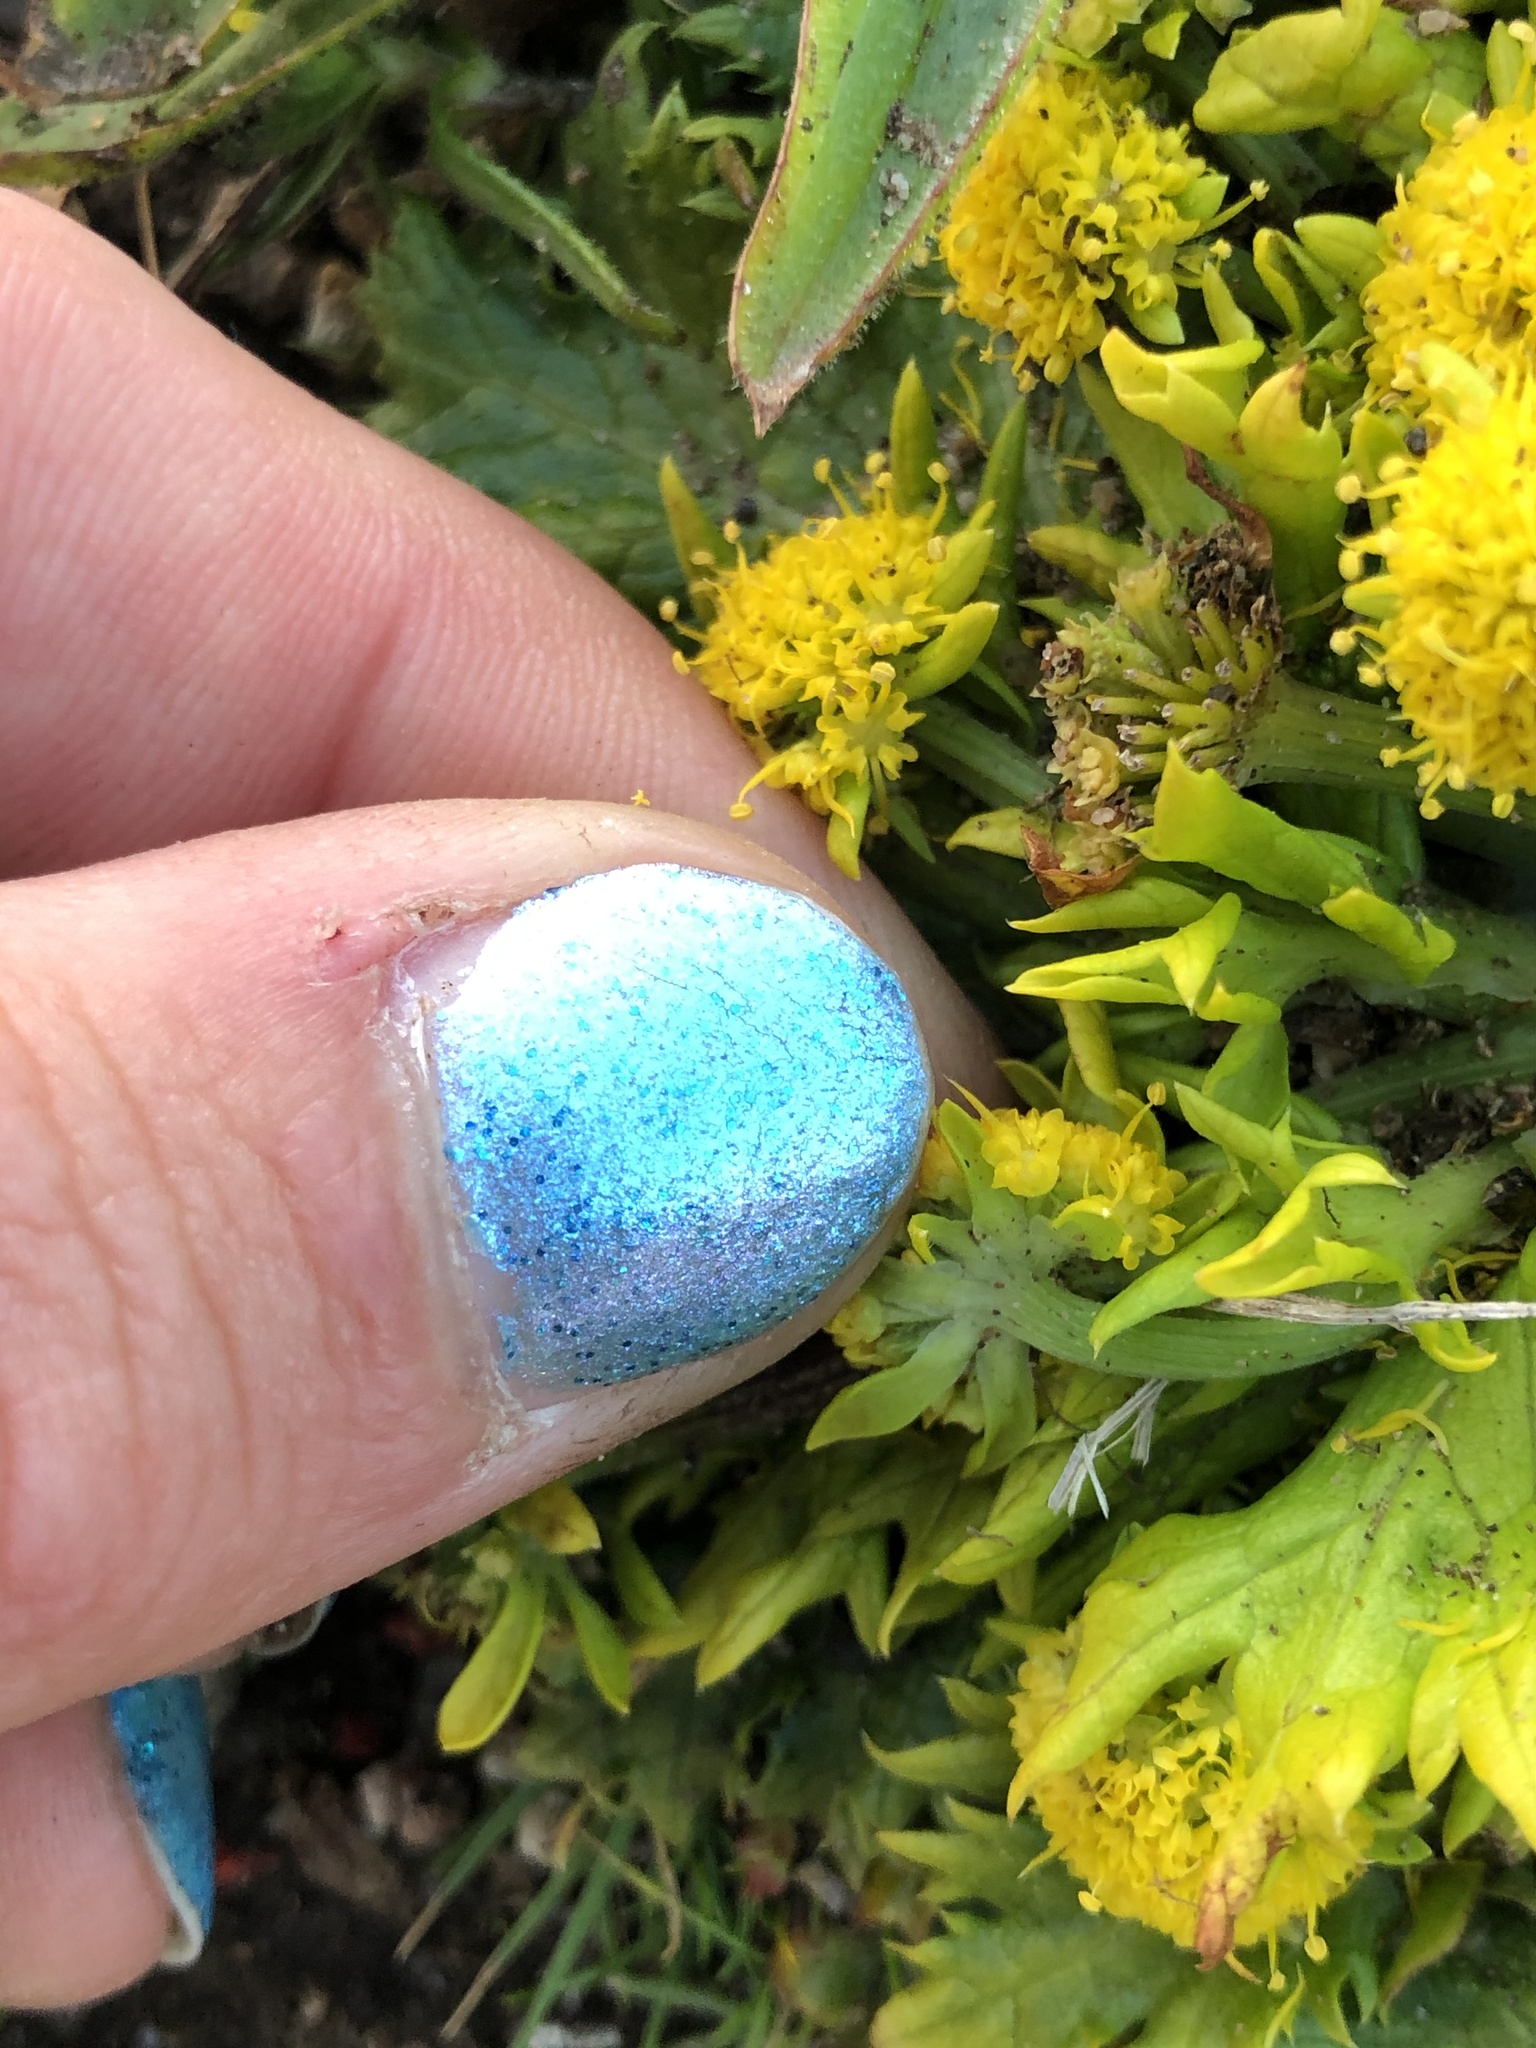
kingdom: Plantae
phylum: Tracheophyta
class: Magnoliopsida
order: Apiales
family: Apiaceae
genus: Sanicula
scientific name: Sanicula arctopoides
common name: Footsteps-of-spring
